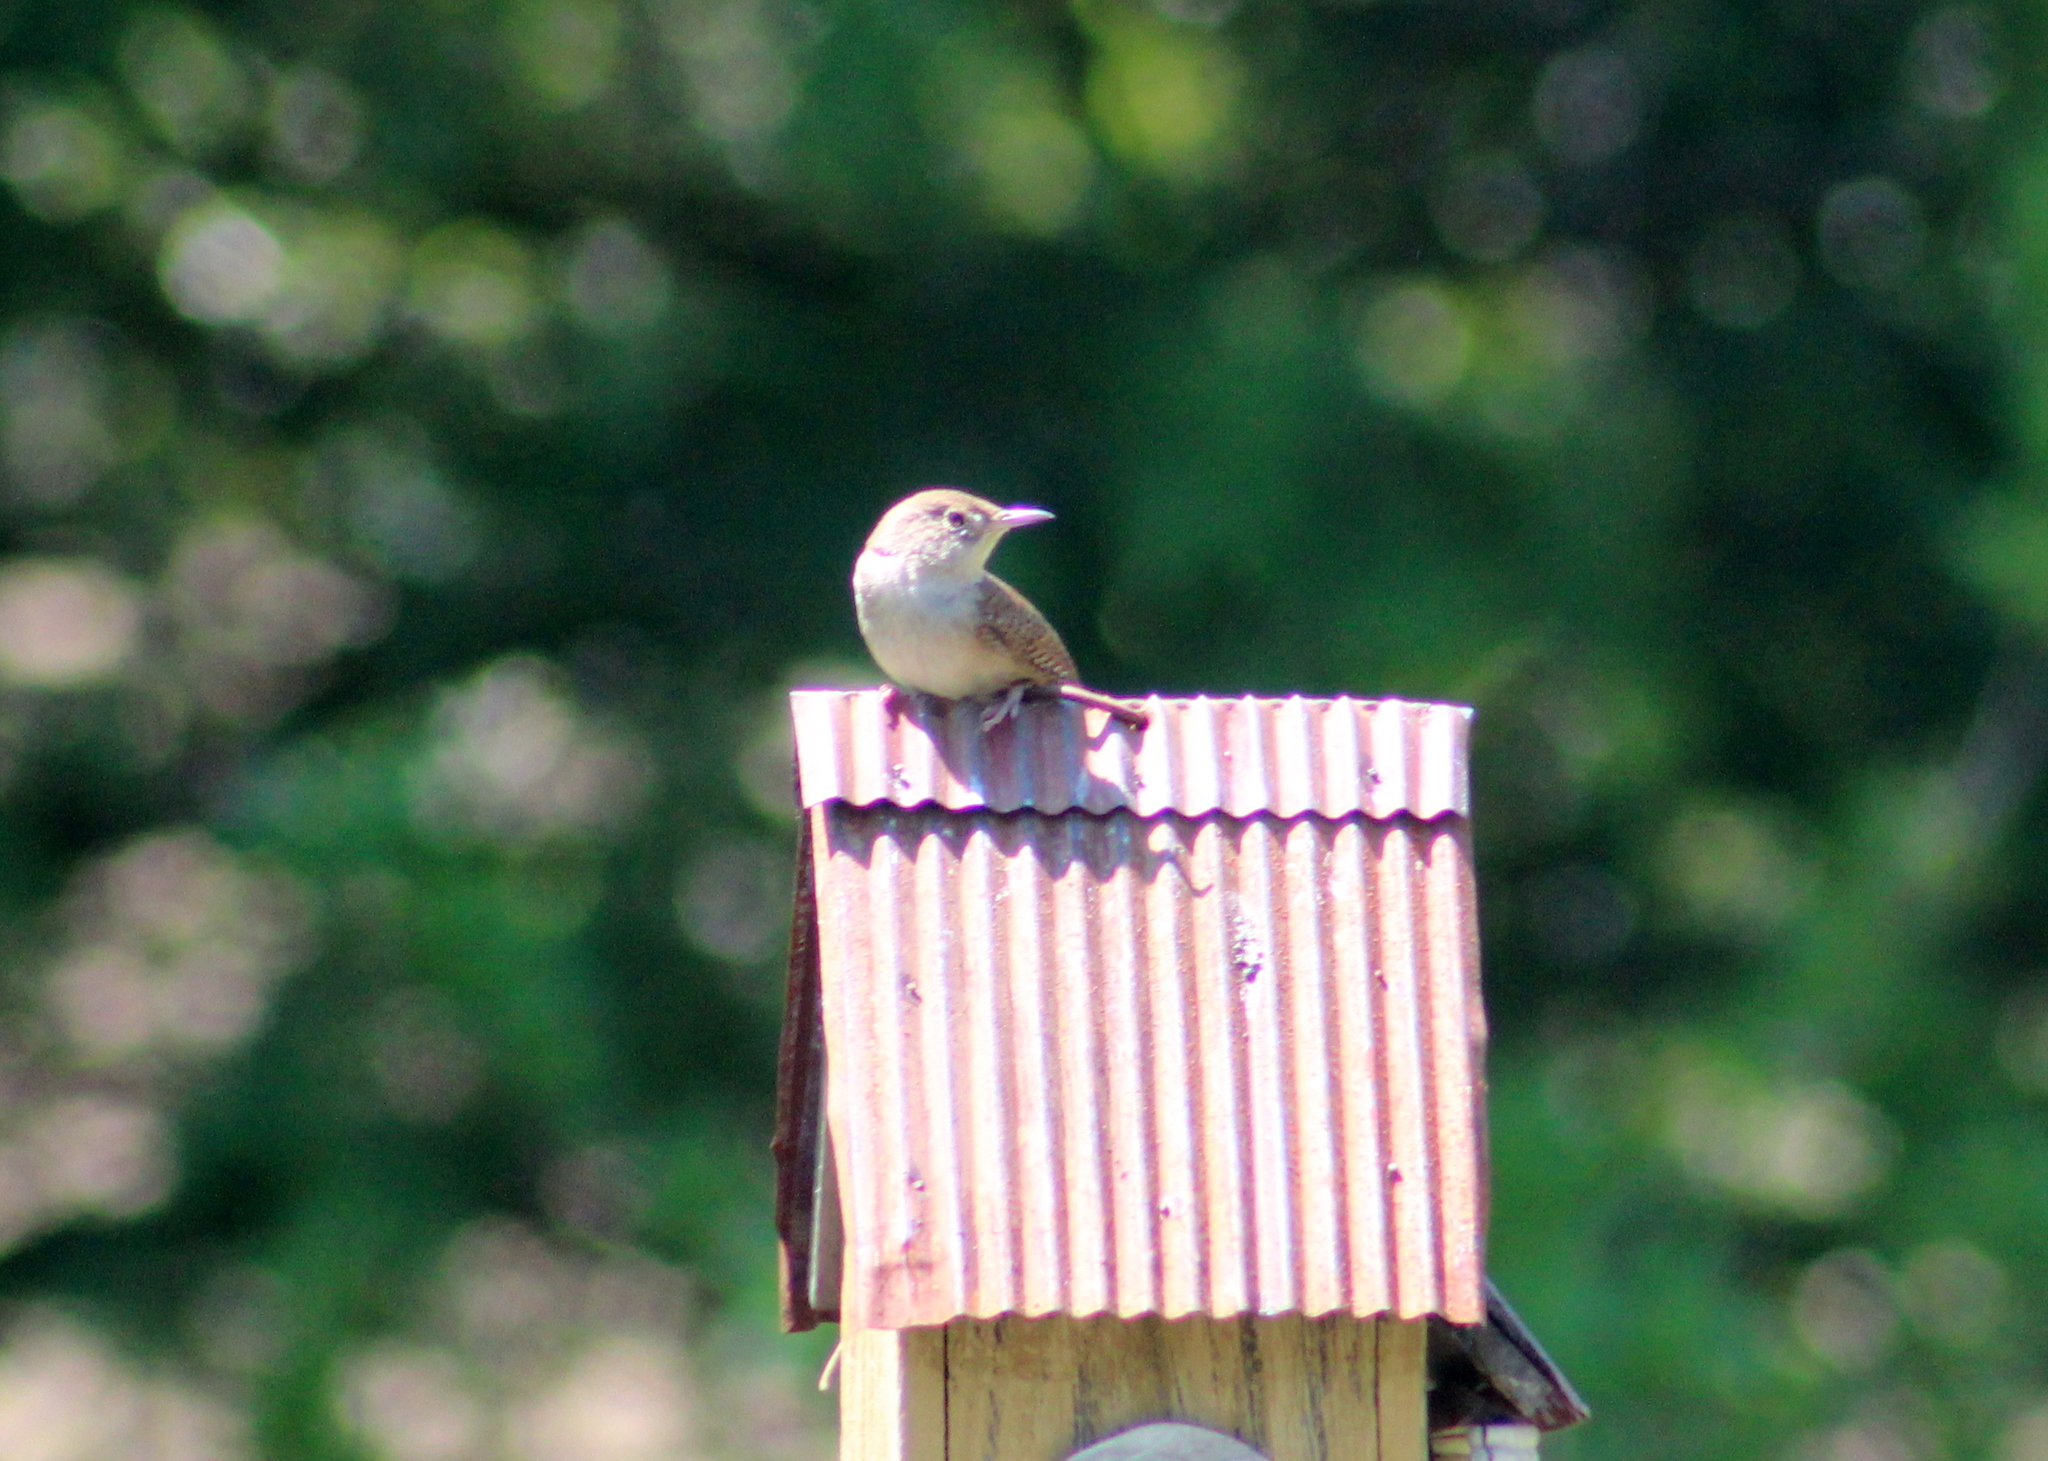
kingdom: Animalia
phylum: Chordata
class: Aves
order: Passeriformes
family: Troglodytidae
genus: Troglodytes
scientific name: Troglodytes aedon
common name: House wren
